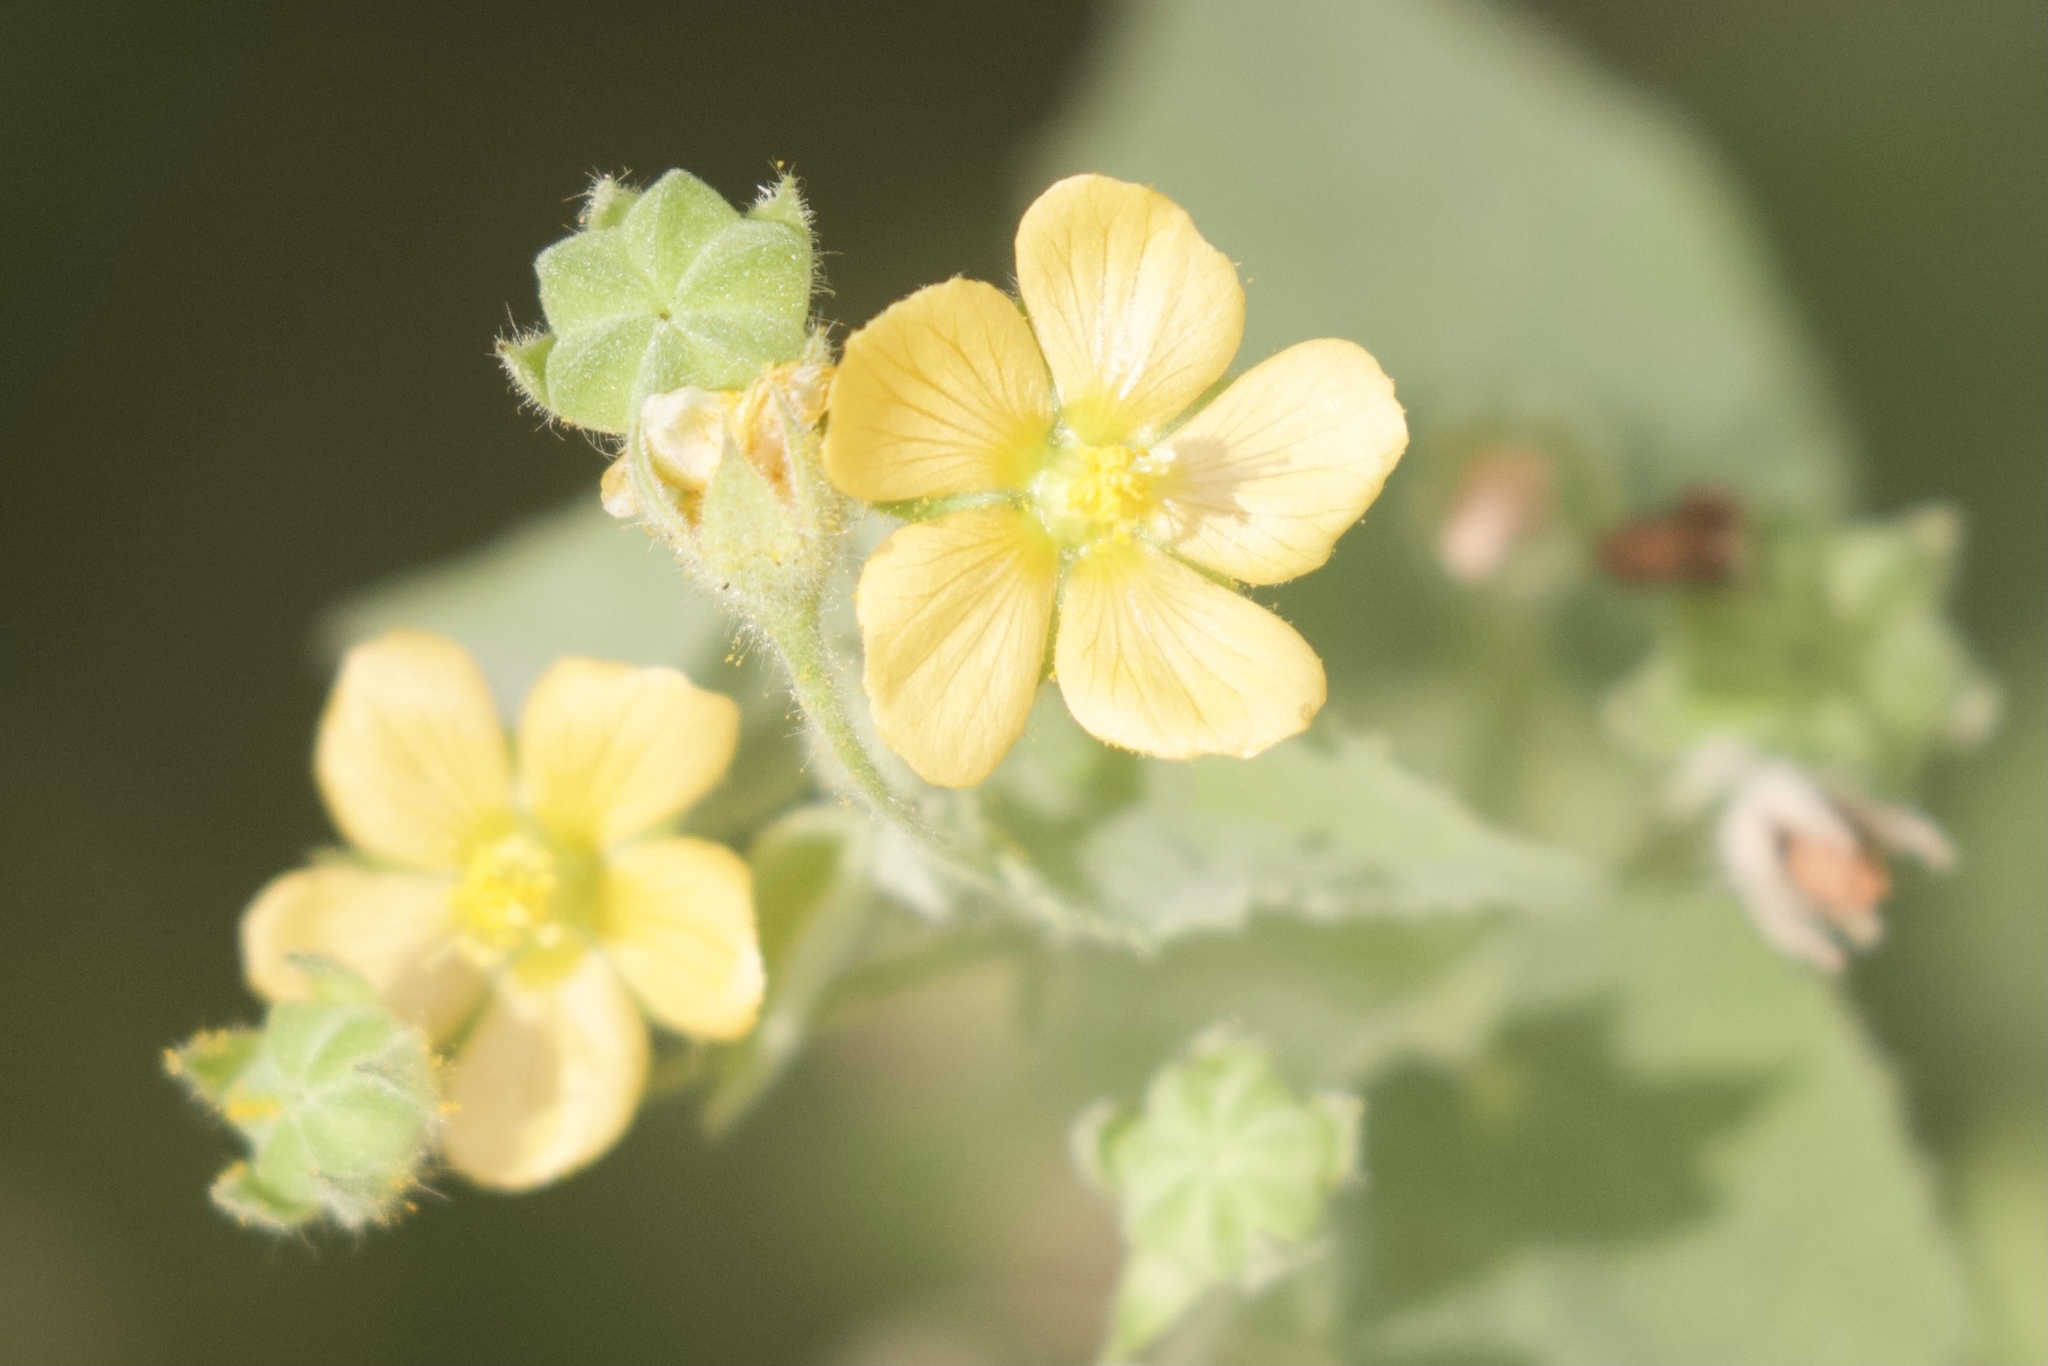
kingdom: Plantae
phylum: Tracheophyta
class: Magnoliopsida
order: Malvales
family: Malvaceae
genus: Abutilon
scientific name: Abutilon viscosum
